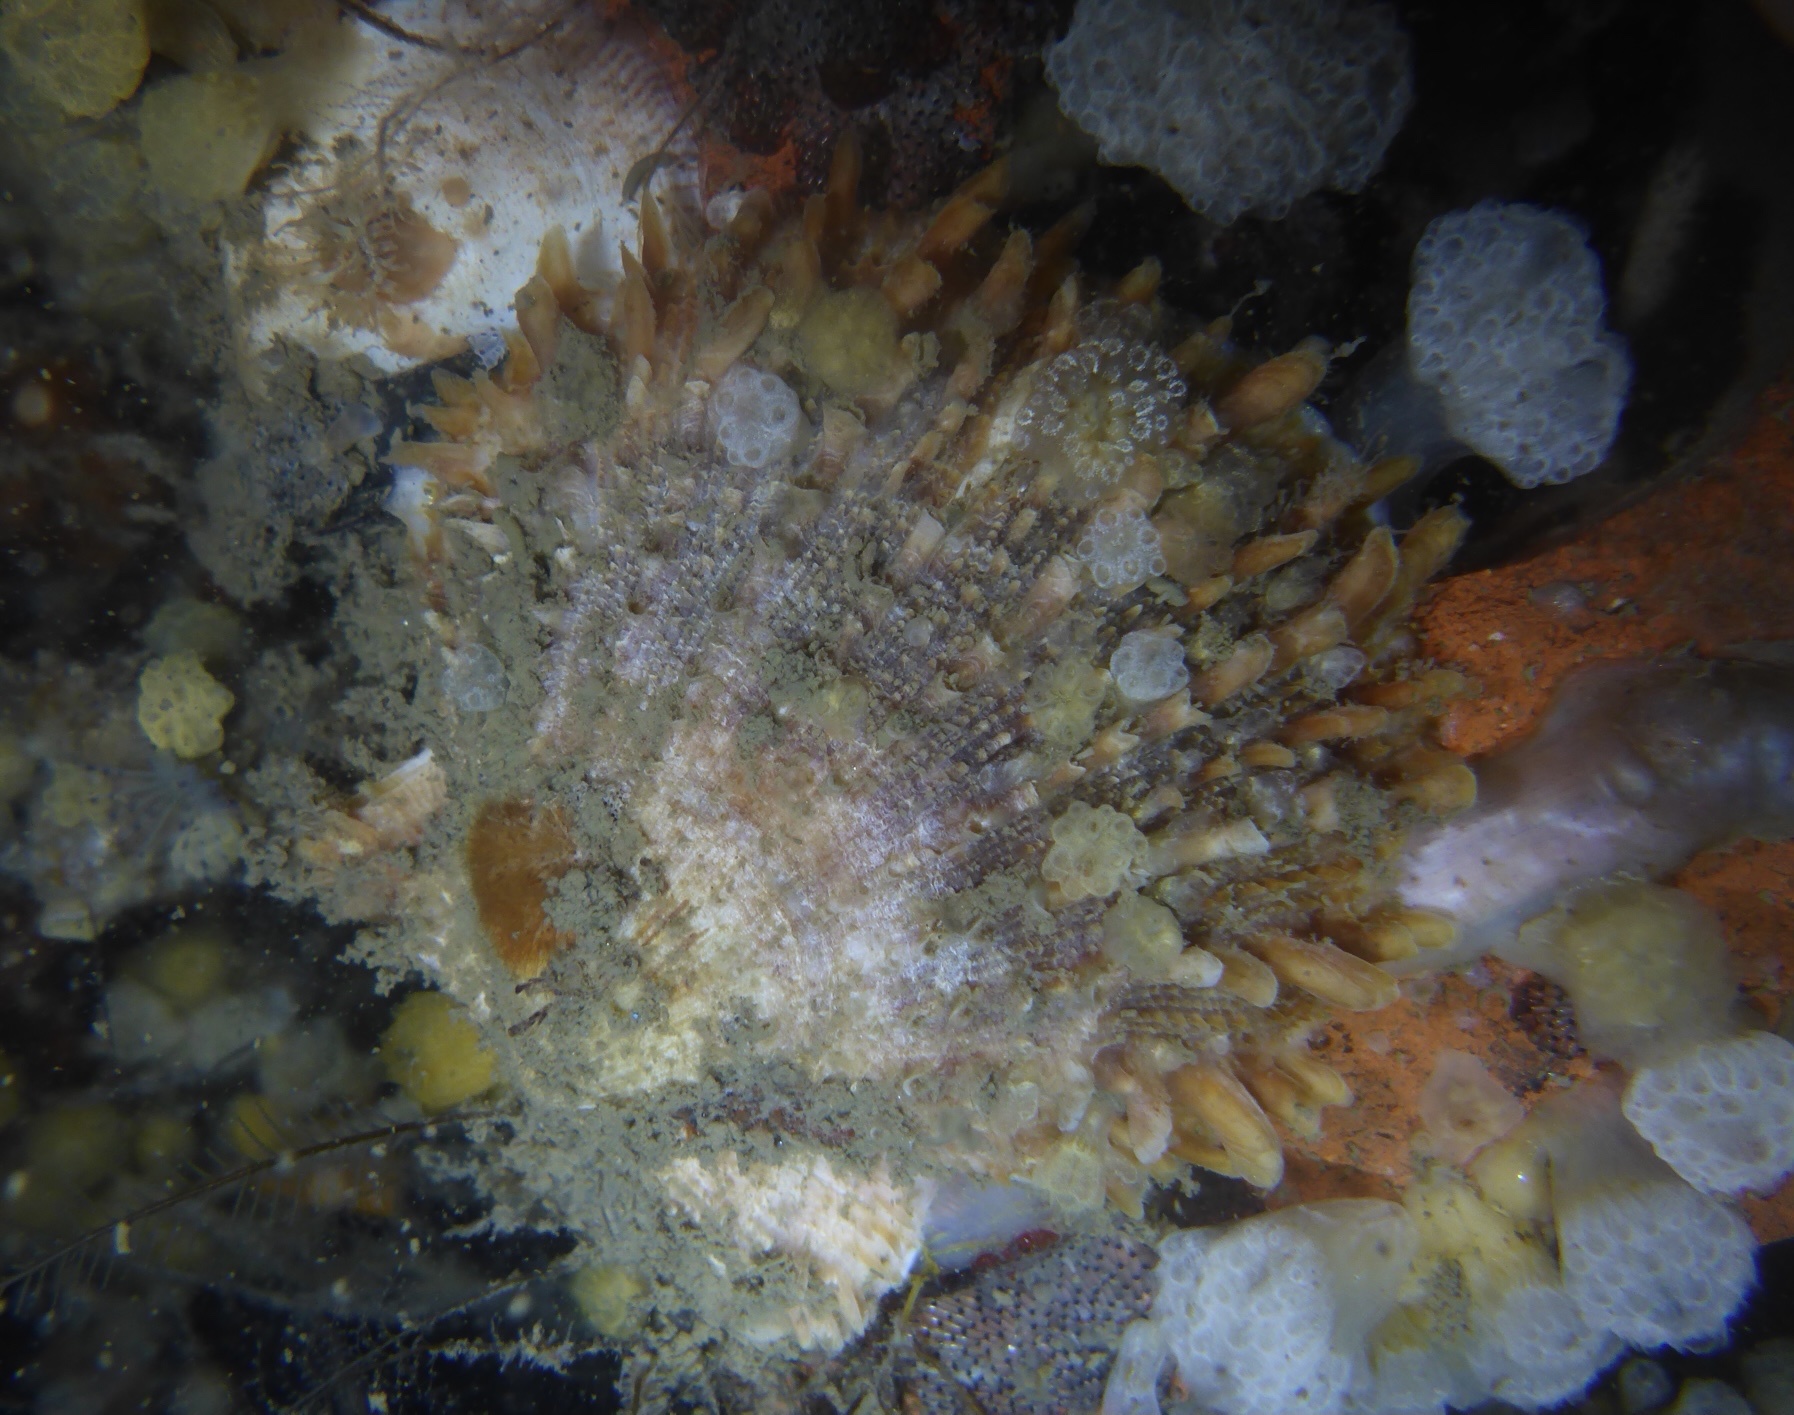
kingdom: Animalia
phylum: Mollusca
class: Bivalvia
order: Pectinida
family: Pectinidae
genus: Crassadoma
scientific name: Crassadoma gigantea
